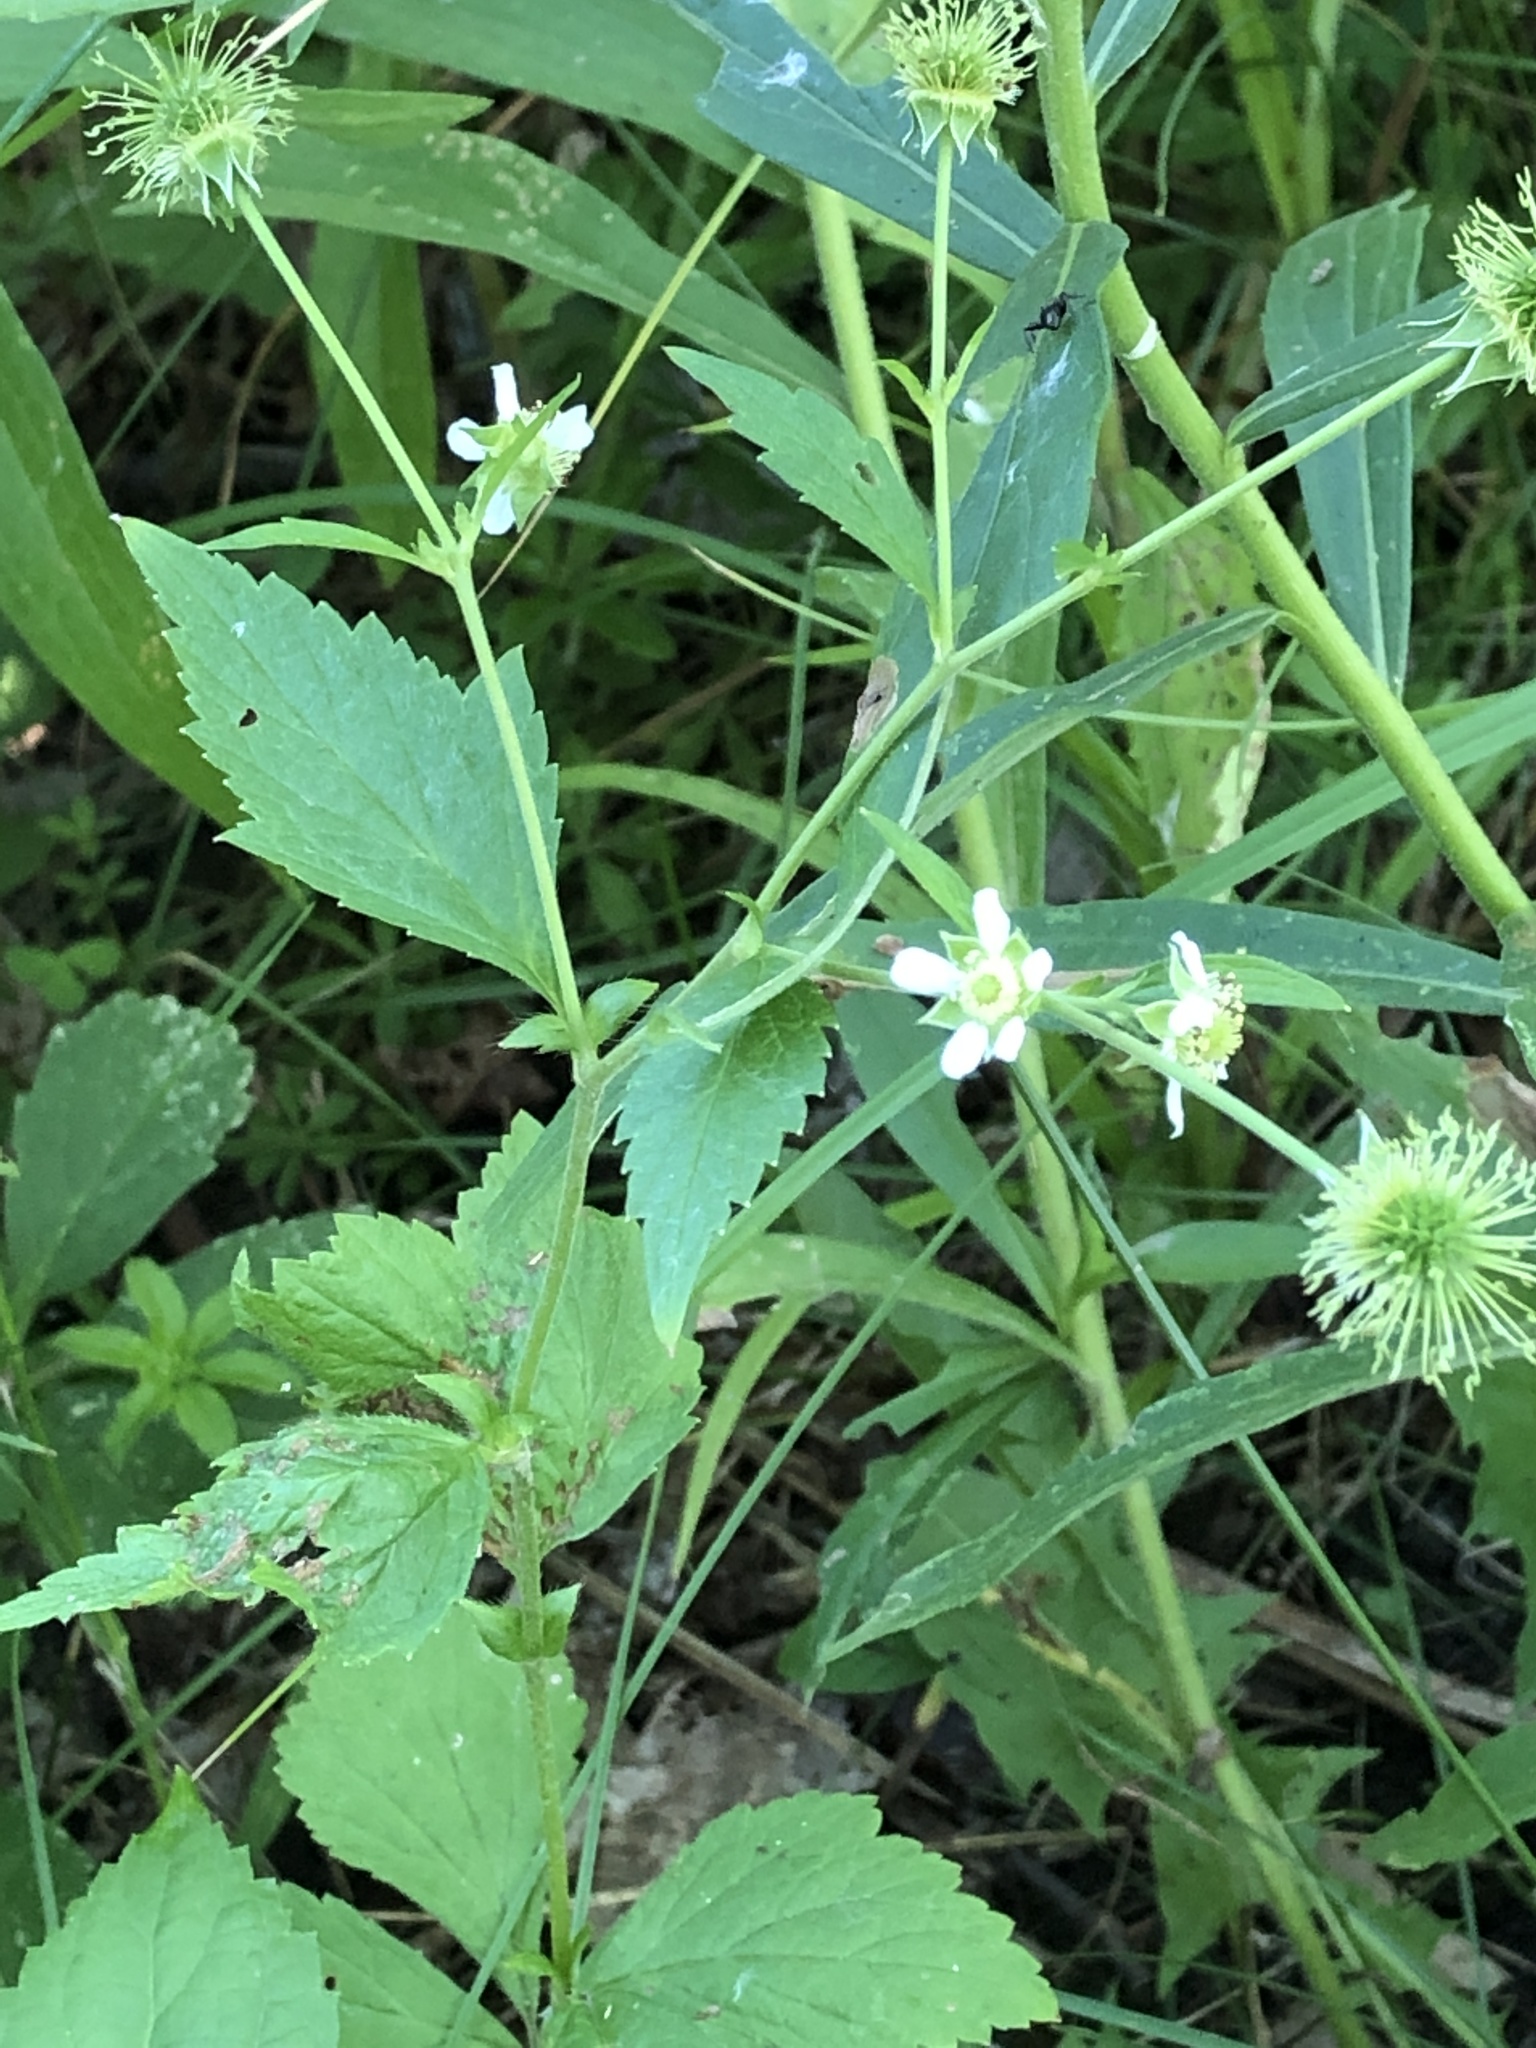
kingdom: Plantae
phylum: Tracheophyta
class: Magnoliopsida
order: Rosales
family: Rosaceae
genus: Geum
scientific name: Geum canadense
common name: White avens
